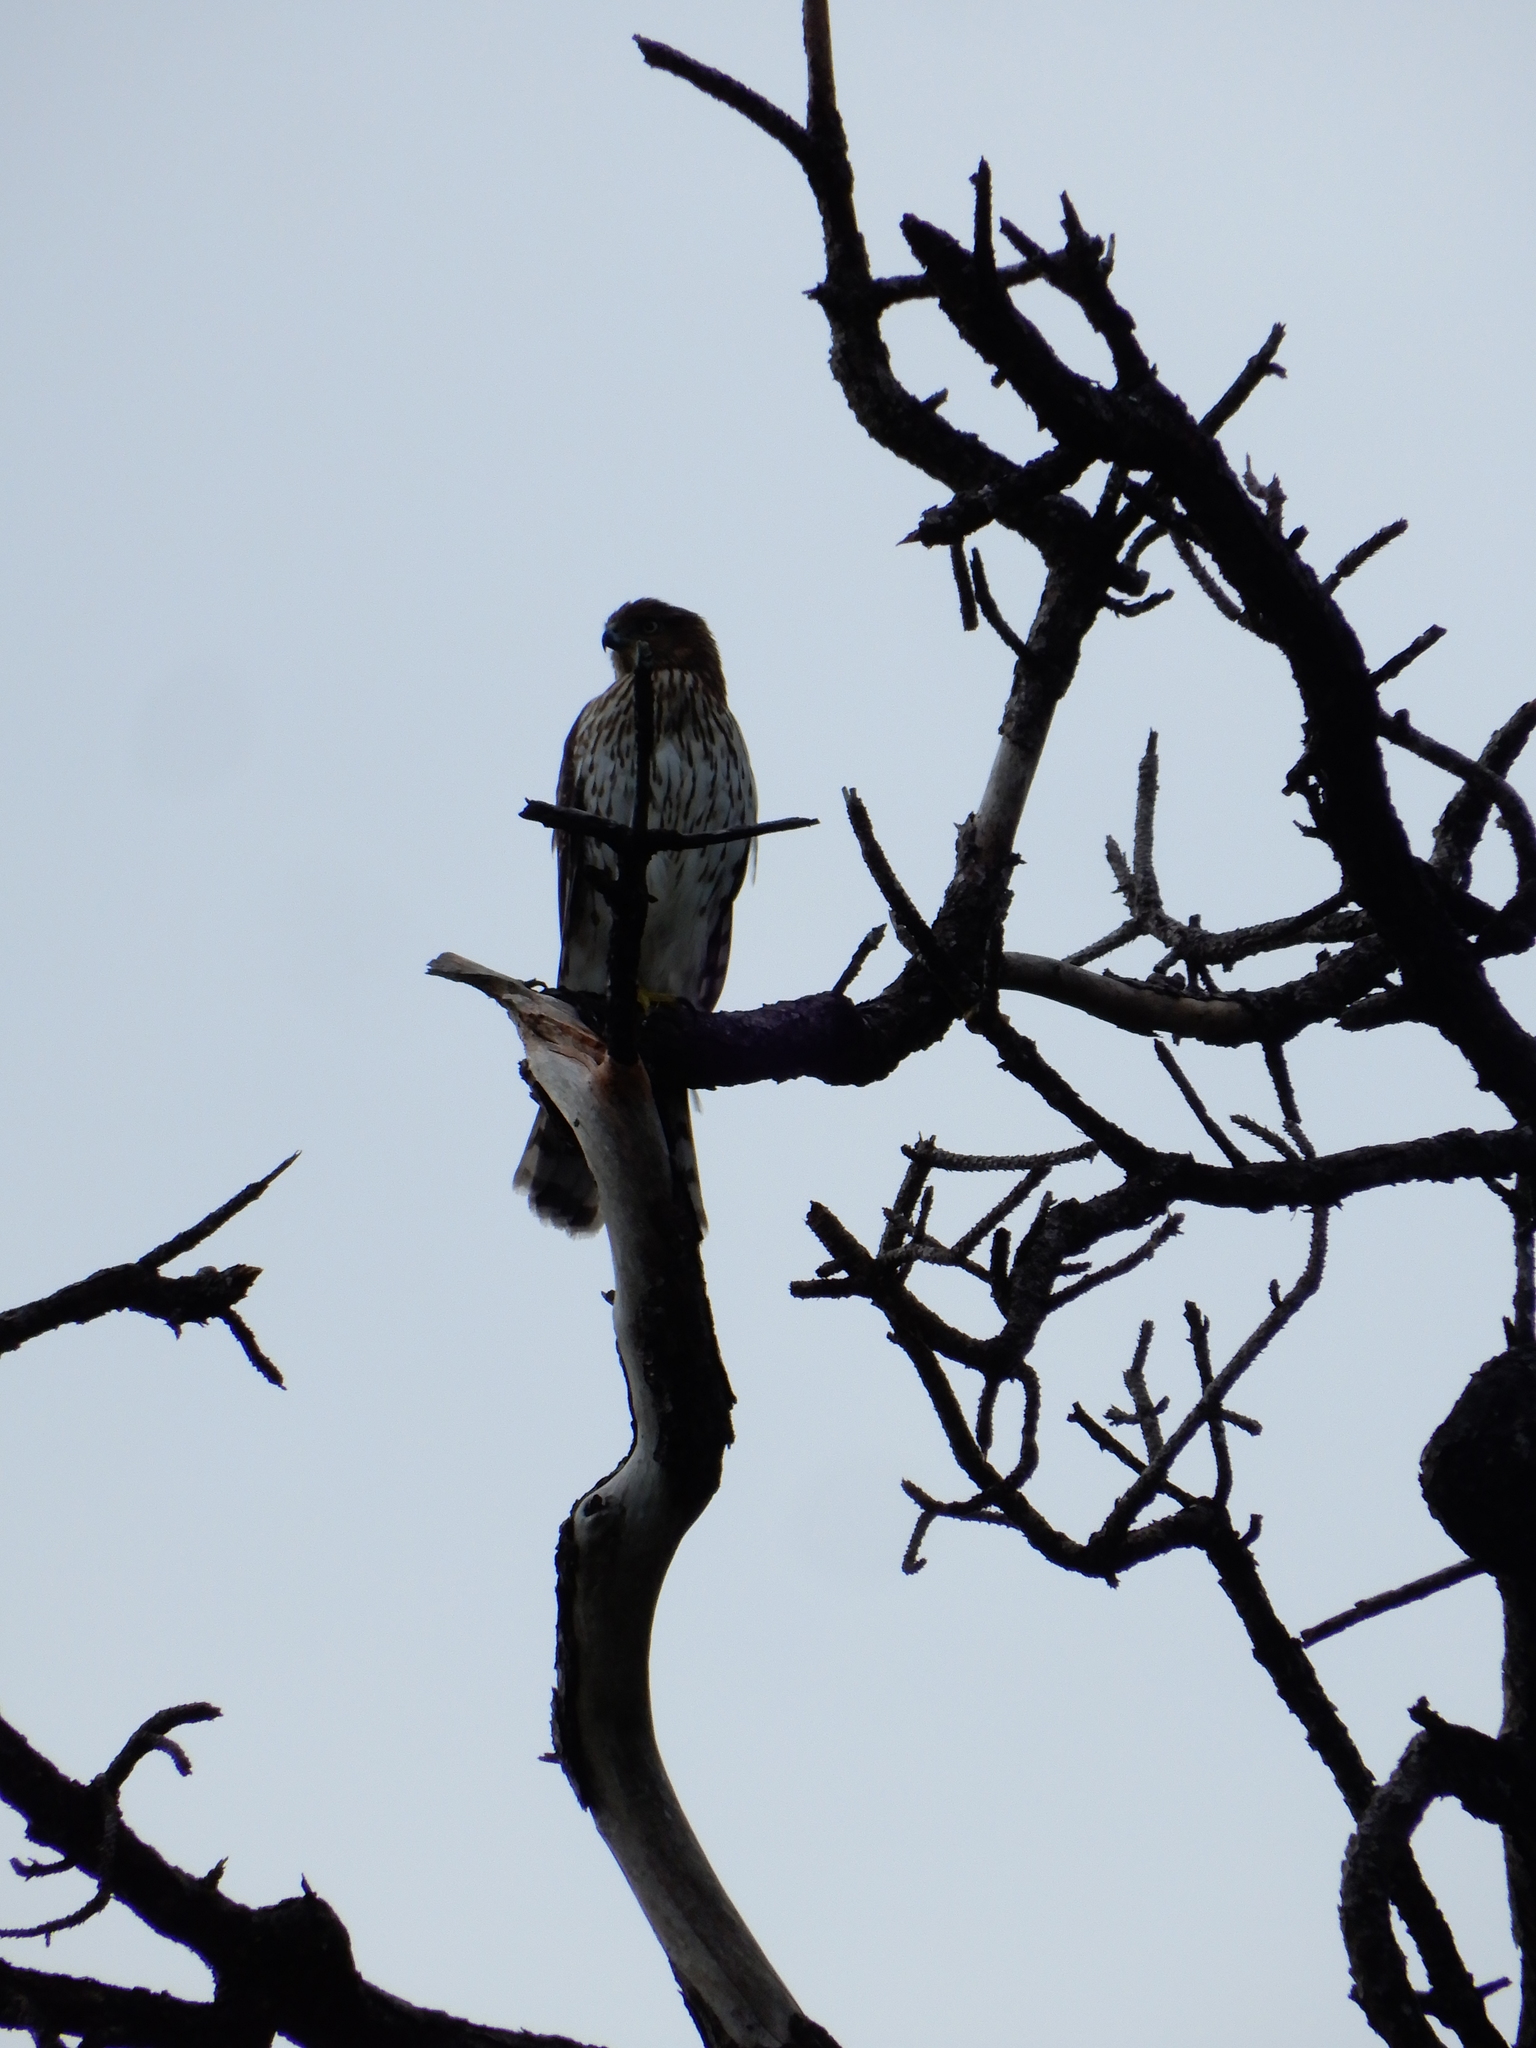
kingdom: Animalia
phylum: Chordata
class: Aves
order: Accipitriformes
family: Accipitridae
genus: Accipiter
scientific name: Accipiter cooperii
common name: Cooper's hawk
